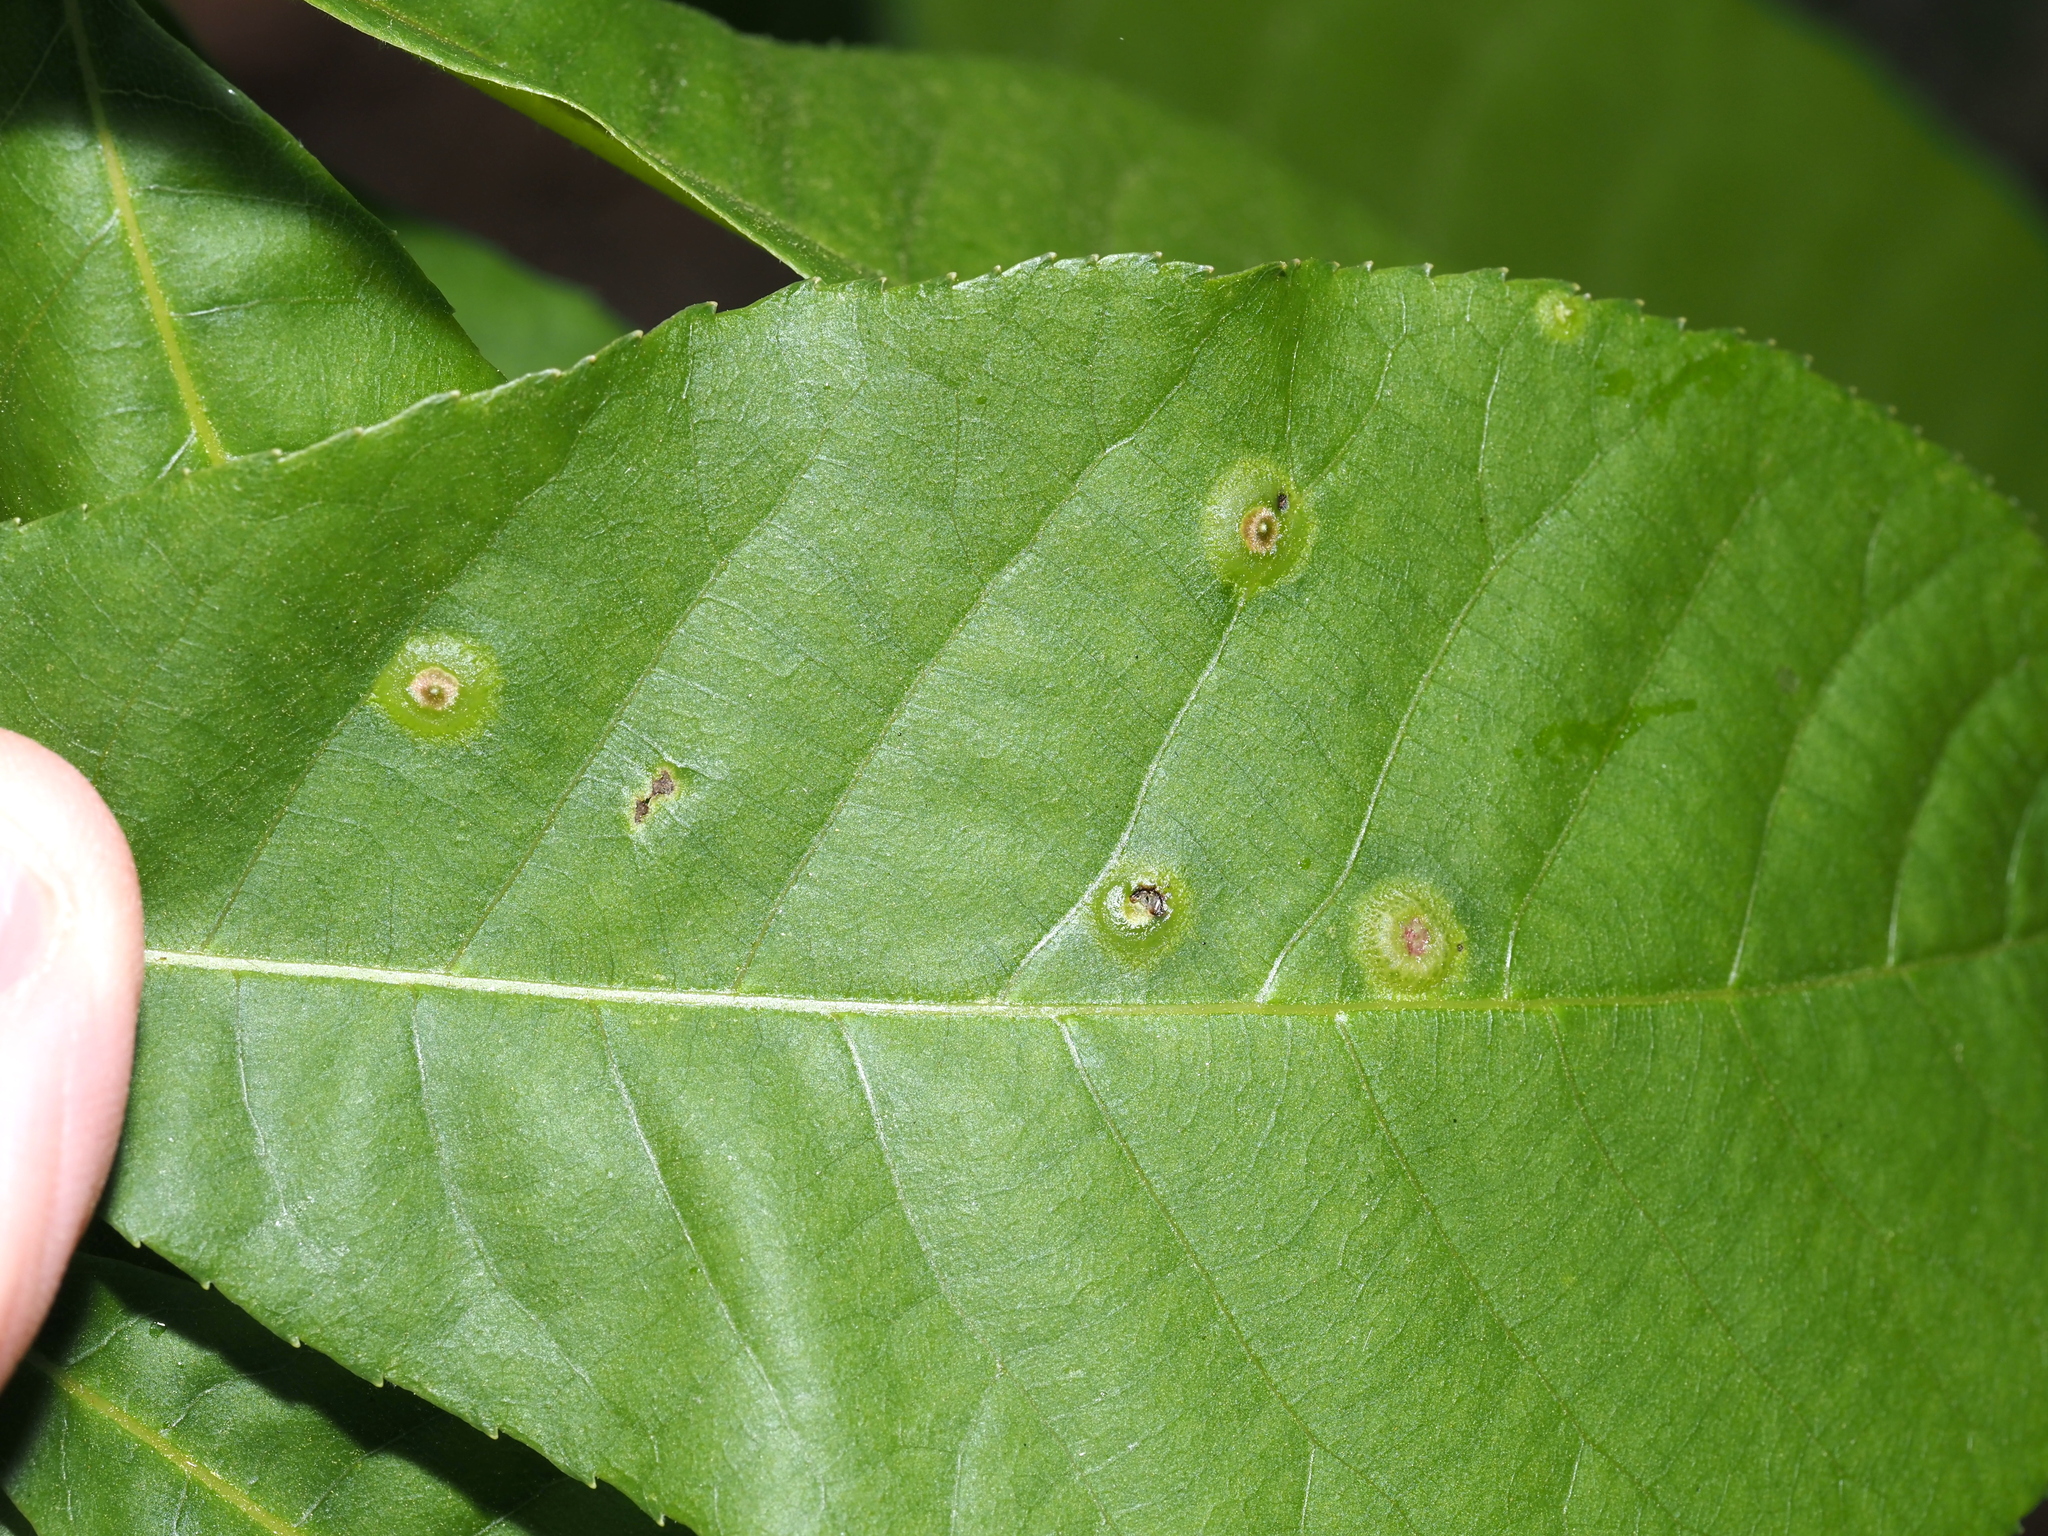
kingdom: Animalia
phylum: Arthropoda
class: Insecta
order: Hemiptera
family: Phylloxeridae
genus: Phylloxera
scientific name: Phylloxera foveola
